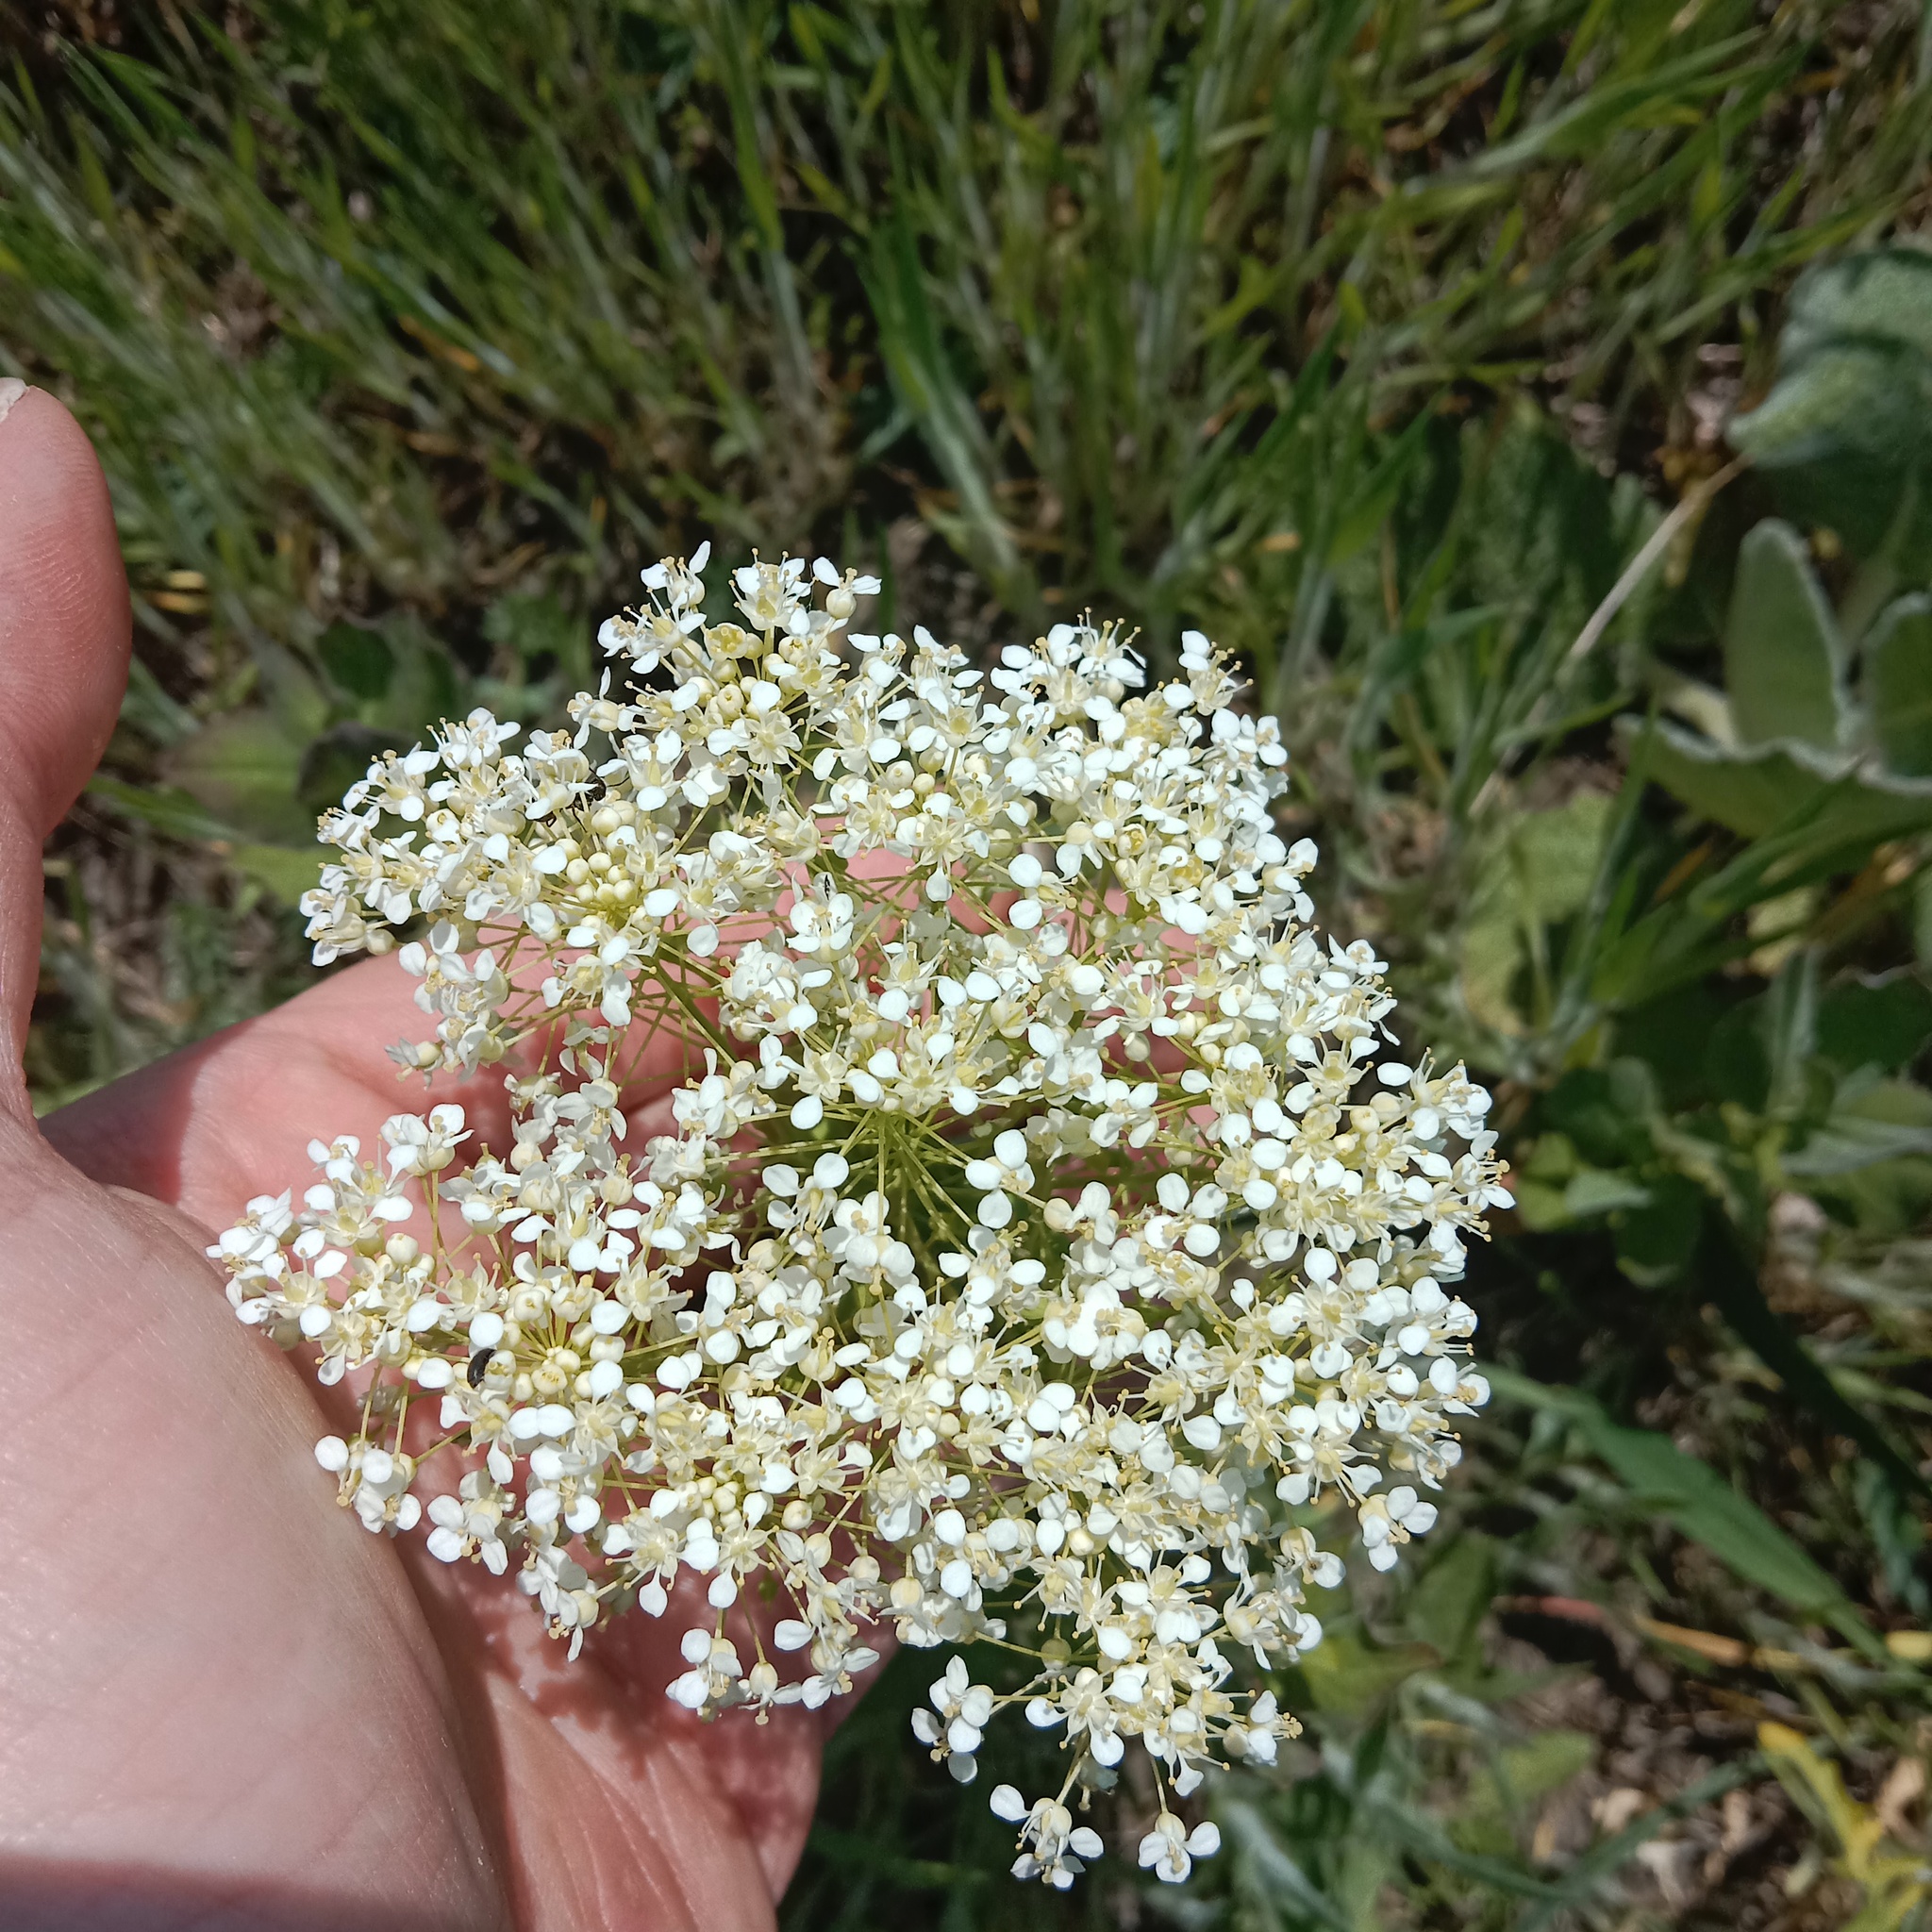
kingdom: Plantae
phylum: Tracheophyta
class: Magnoliopsida
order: Brassicales
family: Brassicaceae
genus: Lepidium
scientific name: Lepidium draba
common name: Hoary cress
